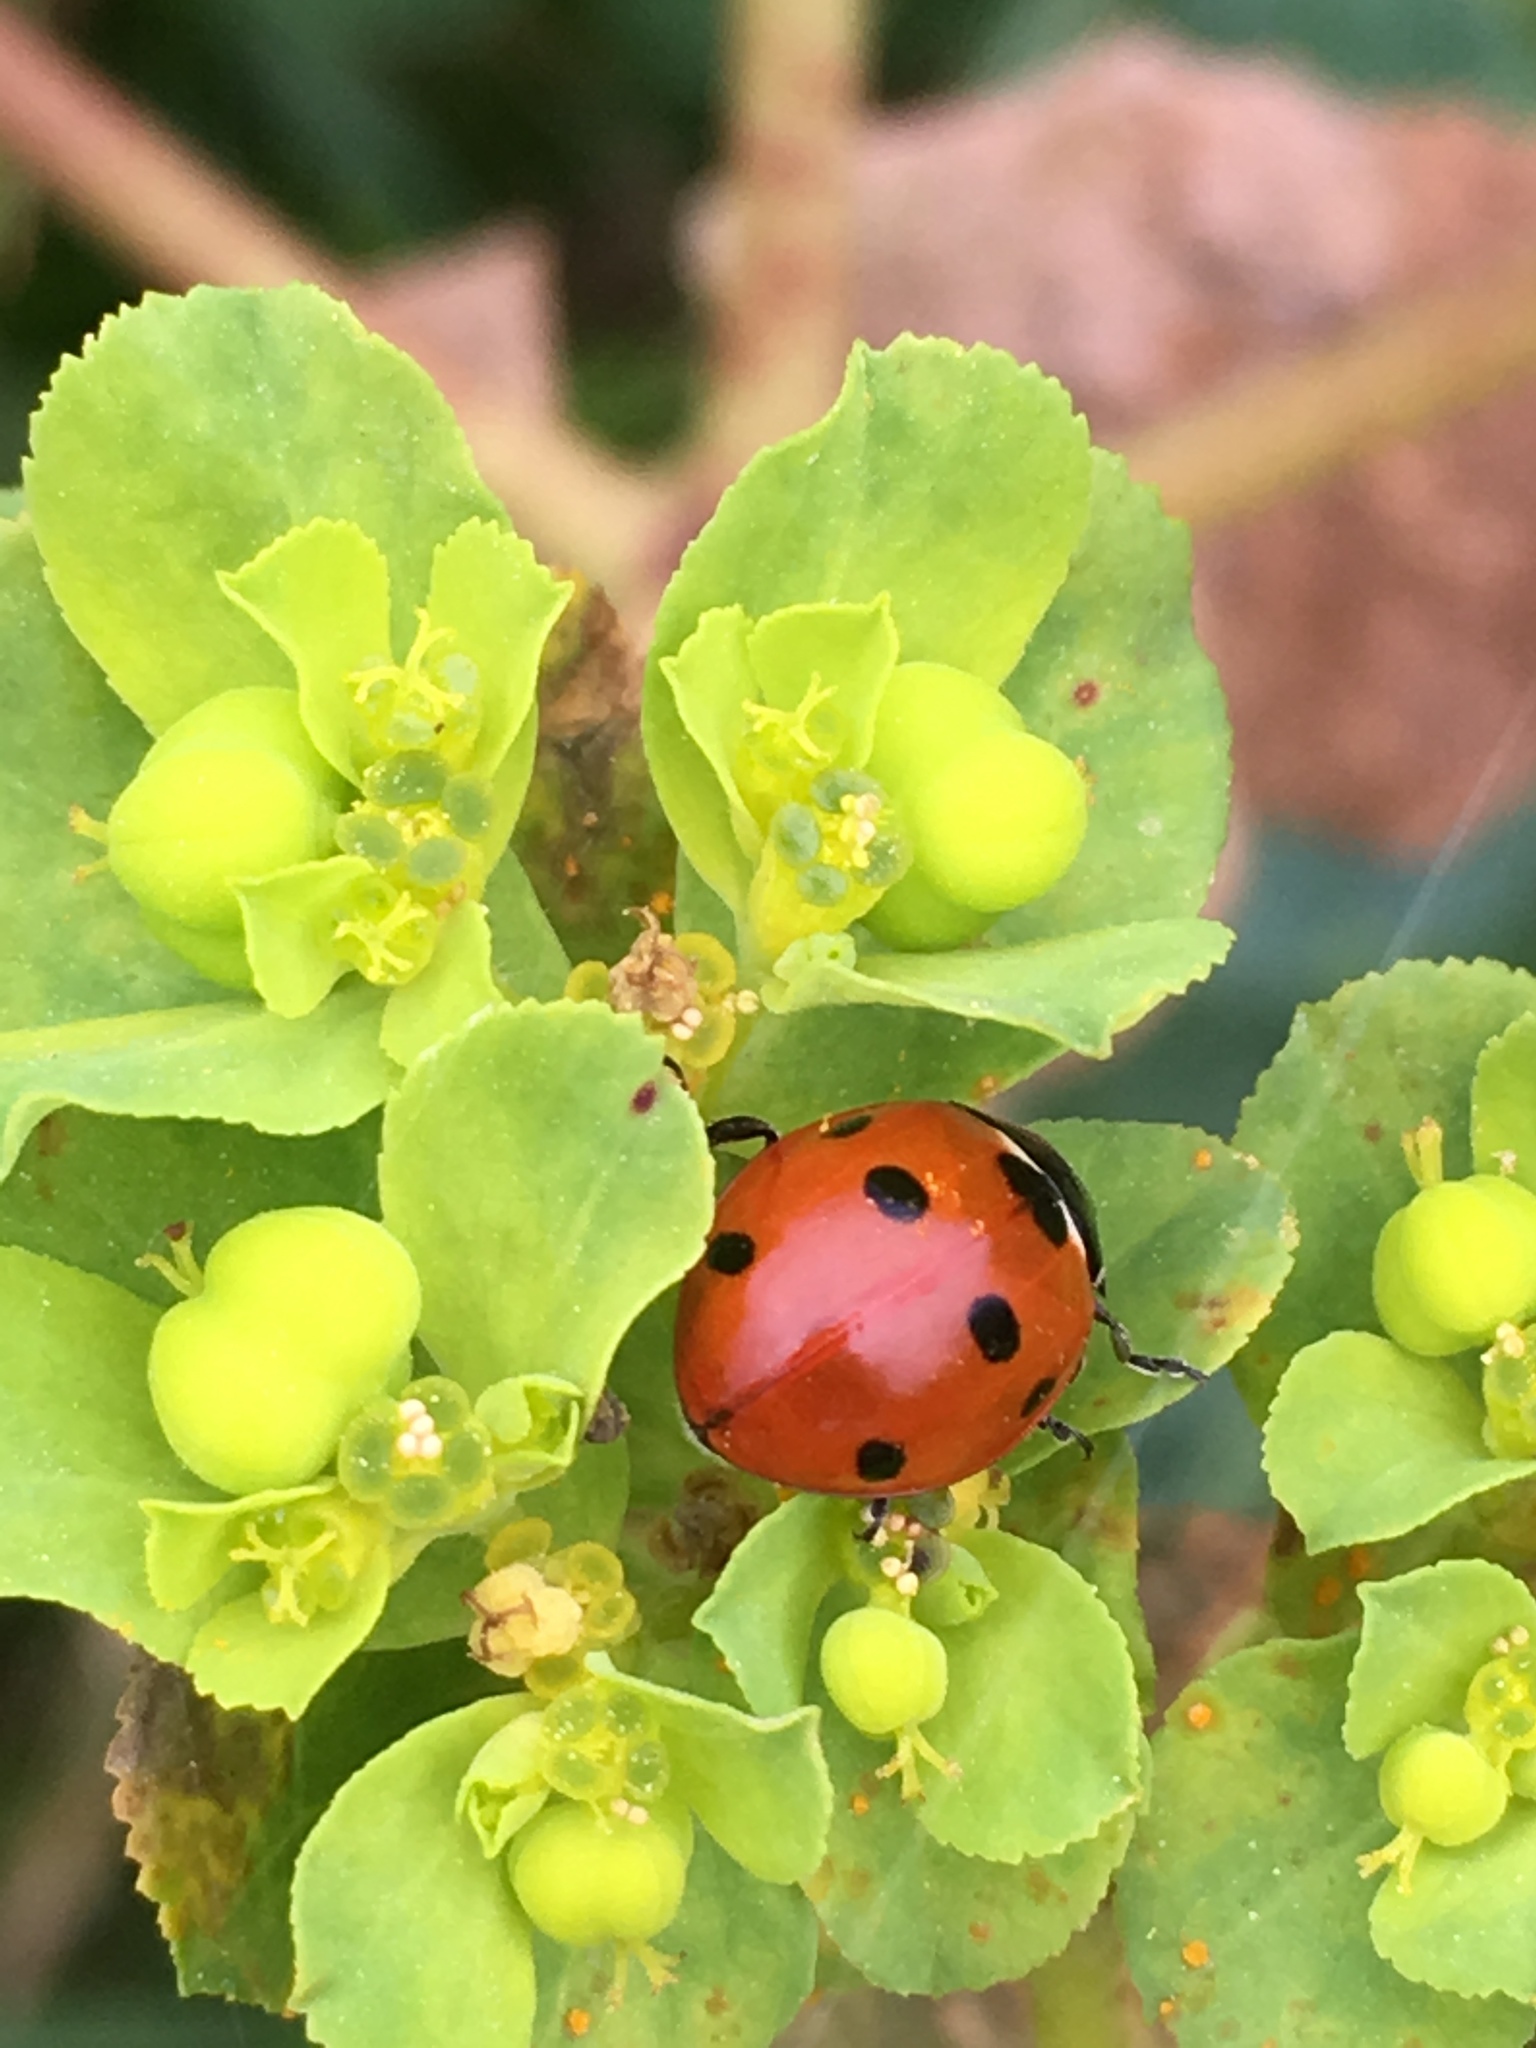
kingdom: Animalia
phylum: Arthropoda
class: Insecta
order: Coleoptera
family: Coccinellidae
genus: Coccinella
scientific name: Coccinella septempunctata
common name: Sevenspotted lady beetle
